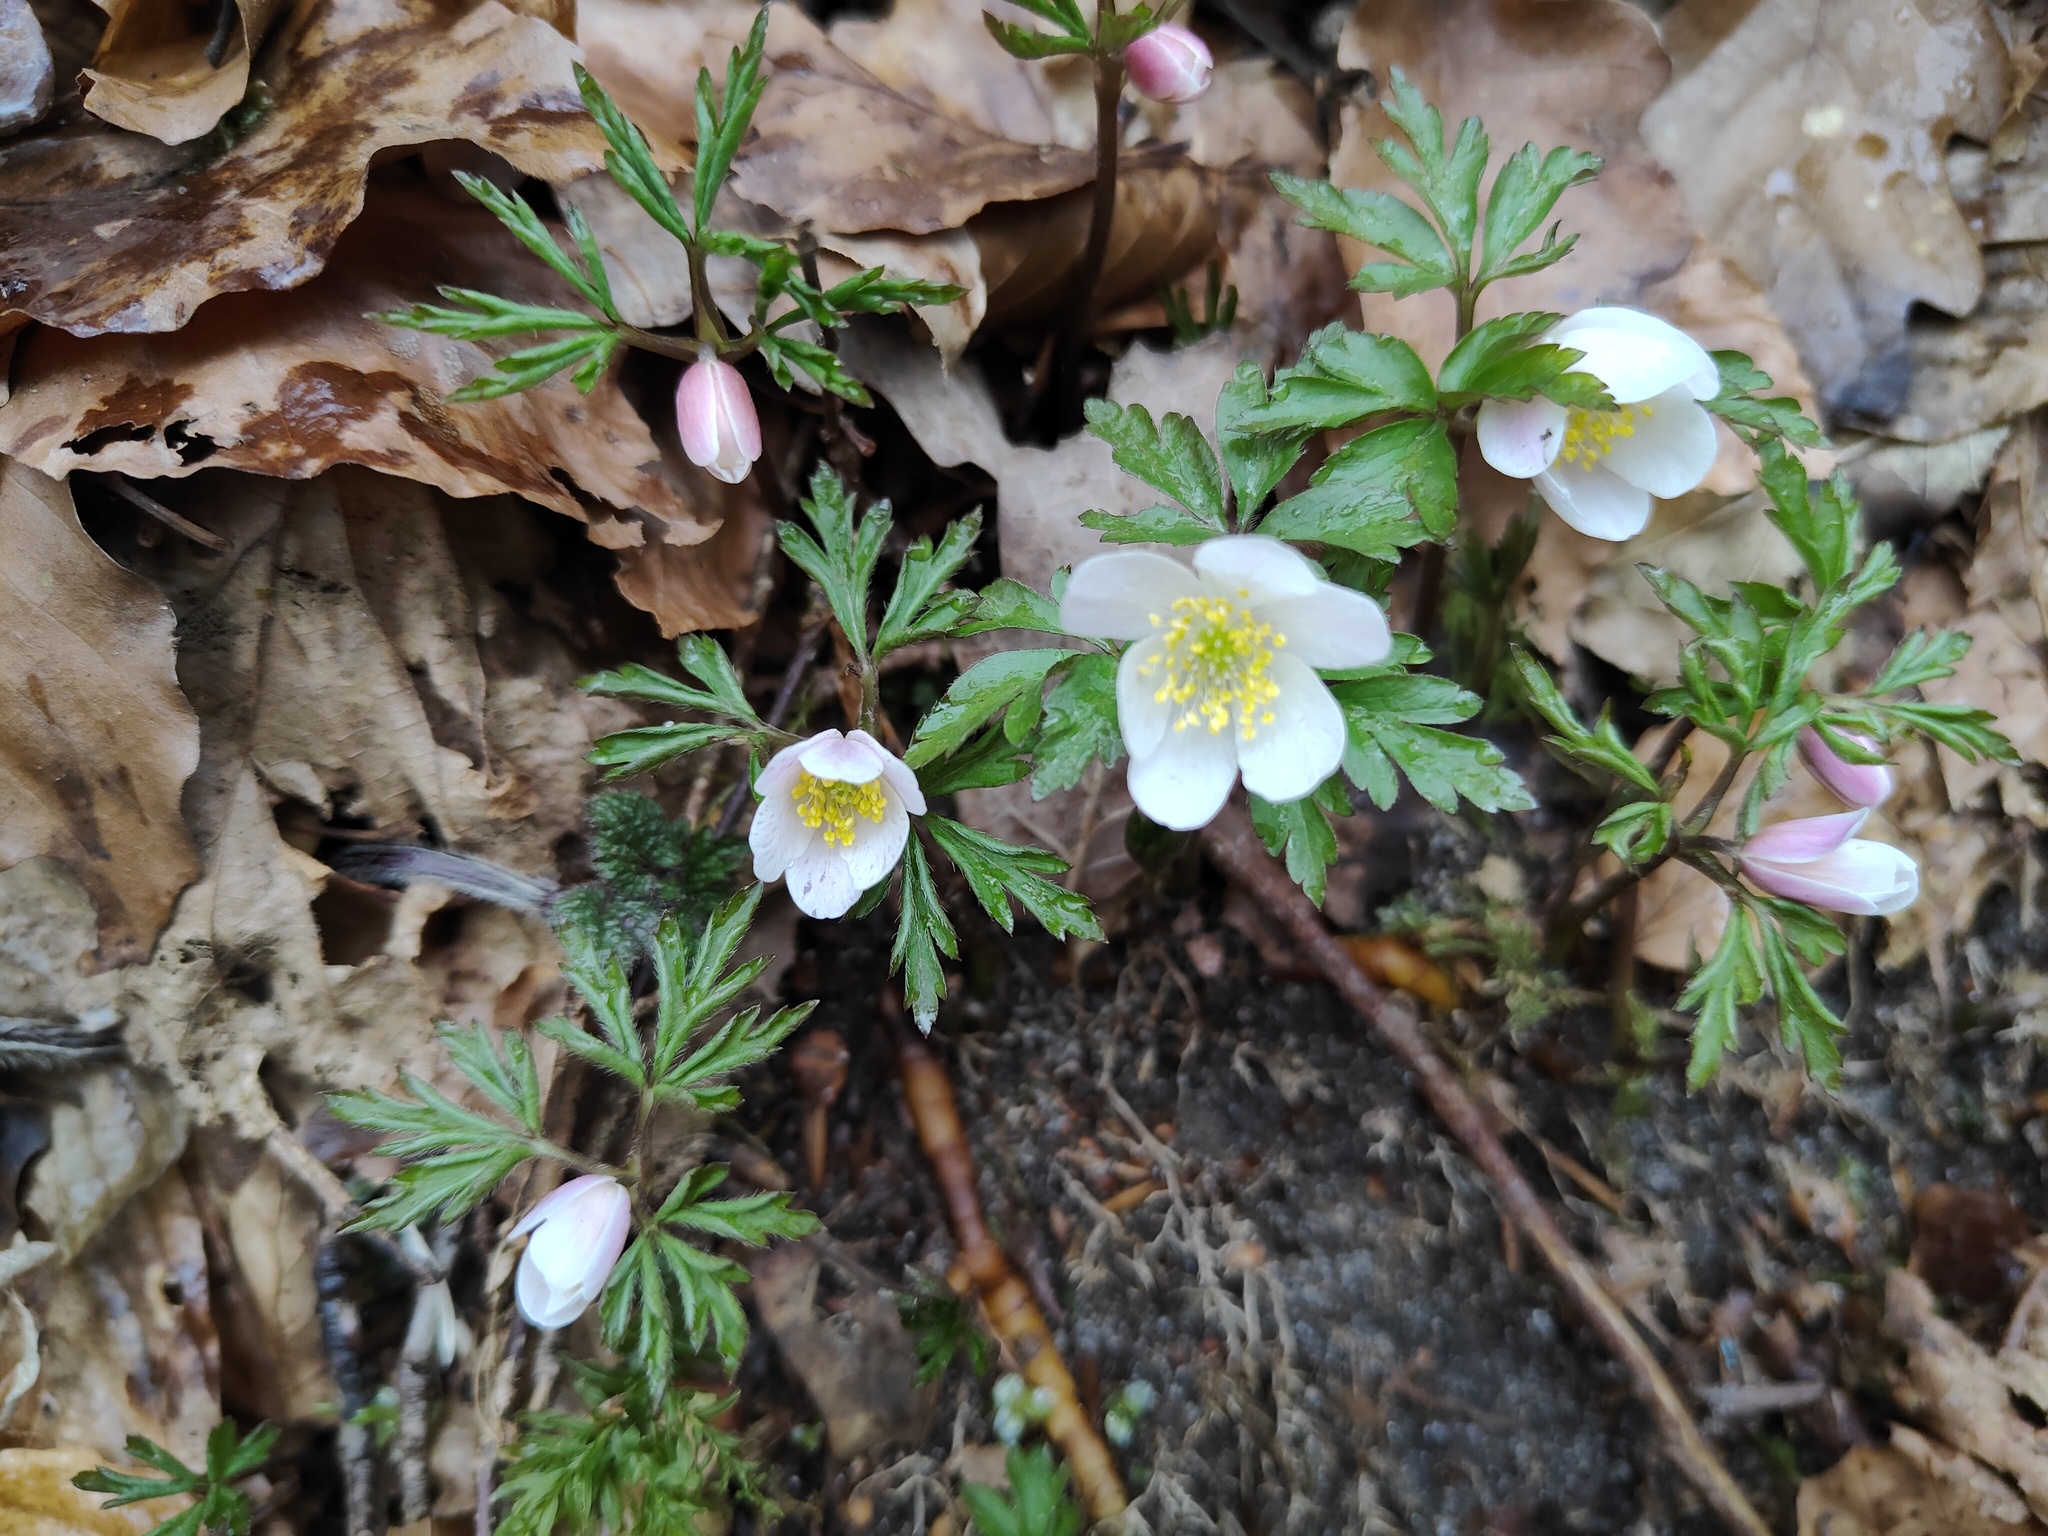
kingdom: Plantae
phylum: Tracheophyta
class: Magnoliopsida
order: Ranunculales
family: Ranunculaceae
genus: Anemone
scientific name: Anemone nemorosa
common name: Wood anemone
